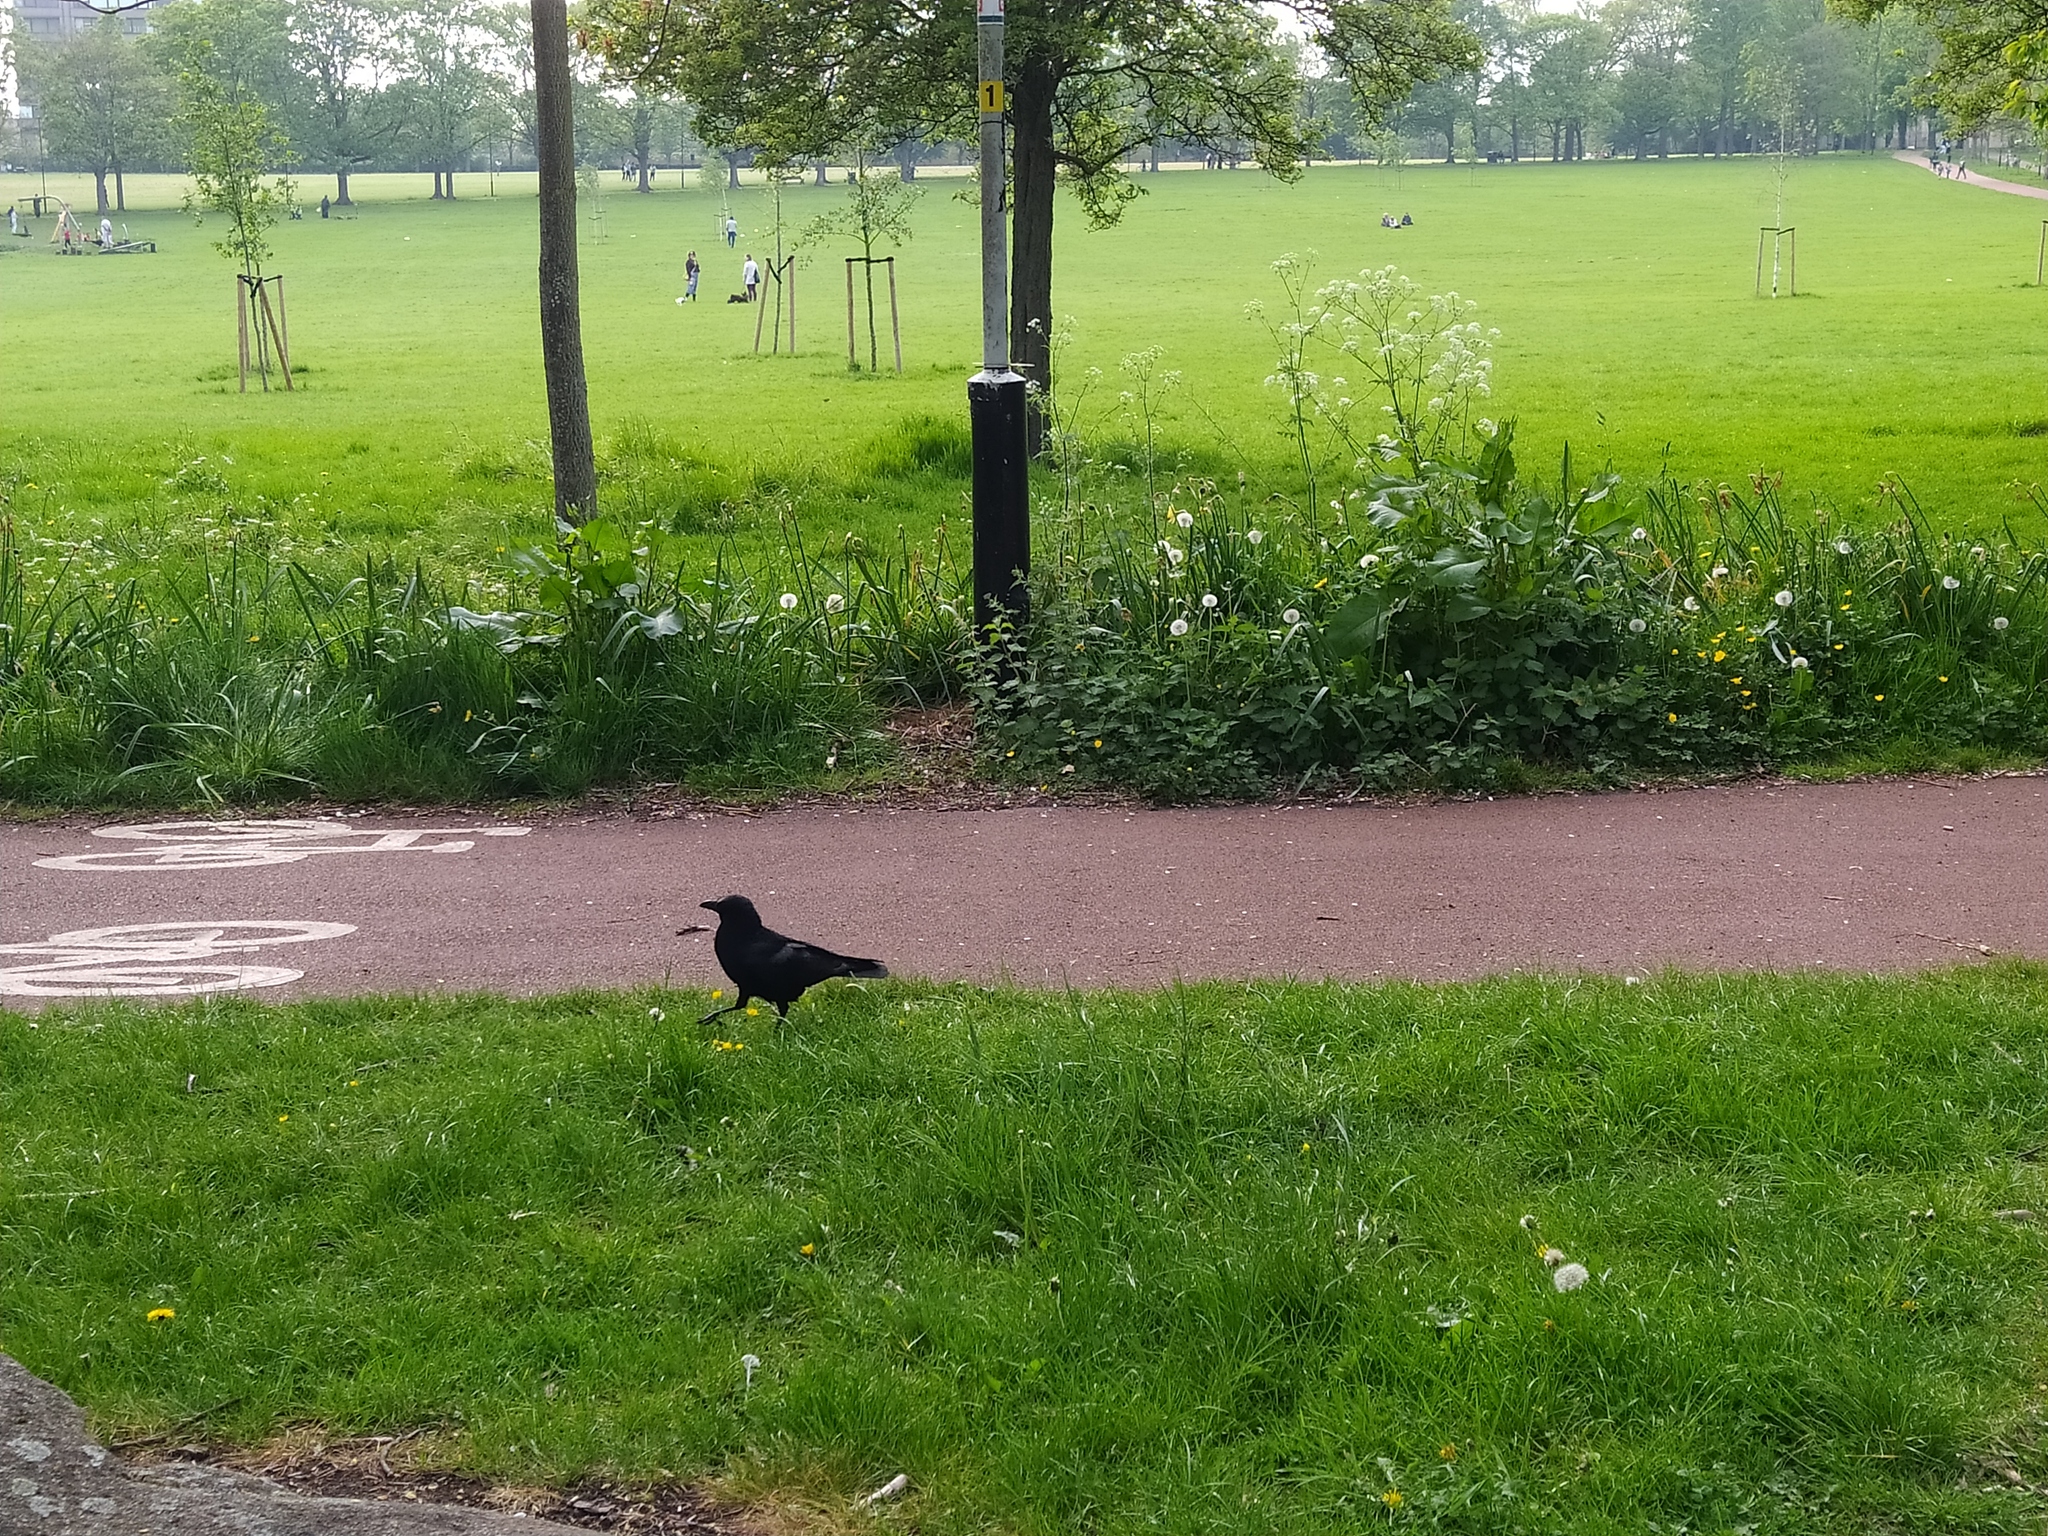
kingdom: Animalia
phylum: Chordata
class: Aves
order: Passeriformes
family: Corvidae
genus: Corvus
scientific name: Corvus corone
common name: Carrion crow
